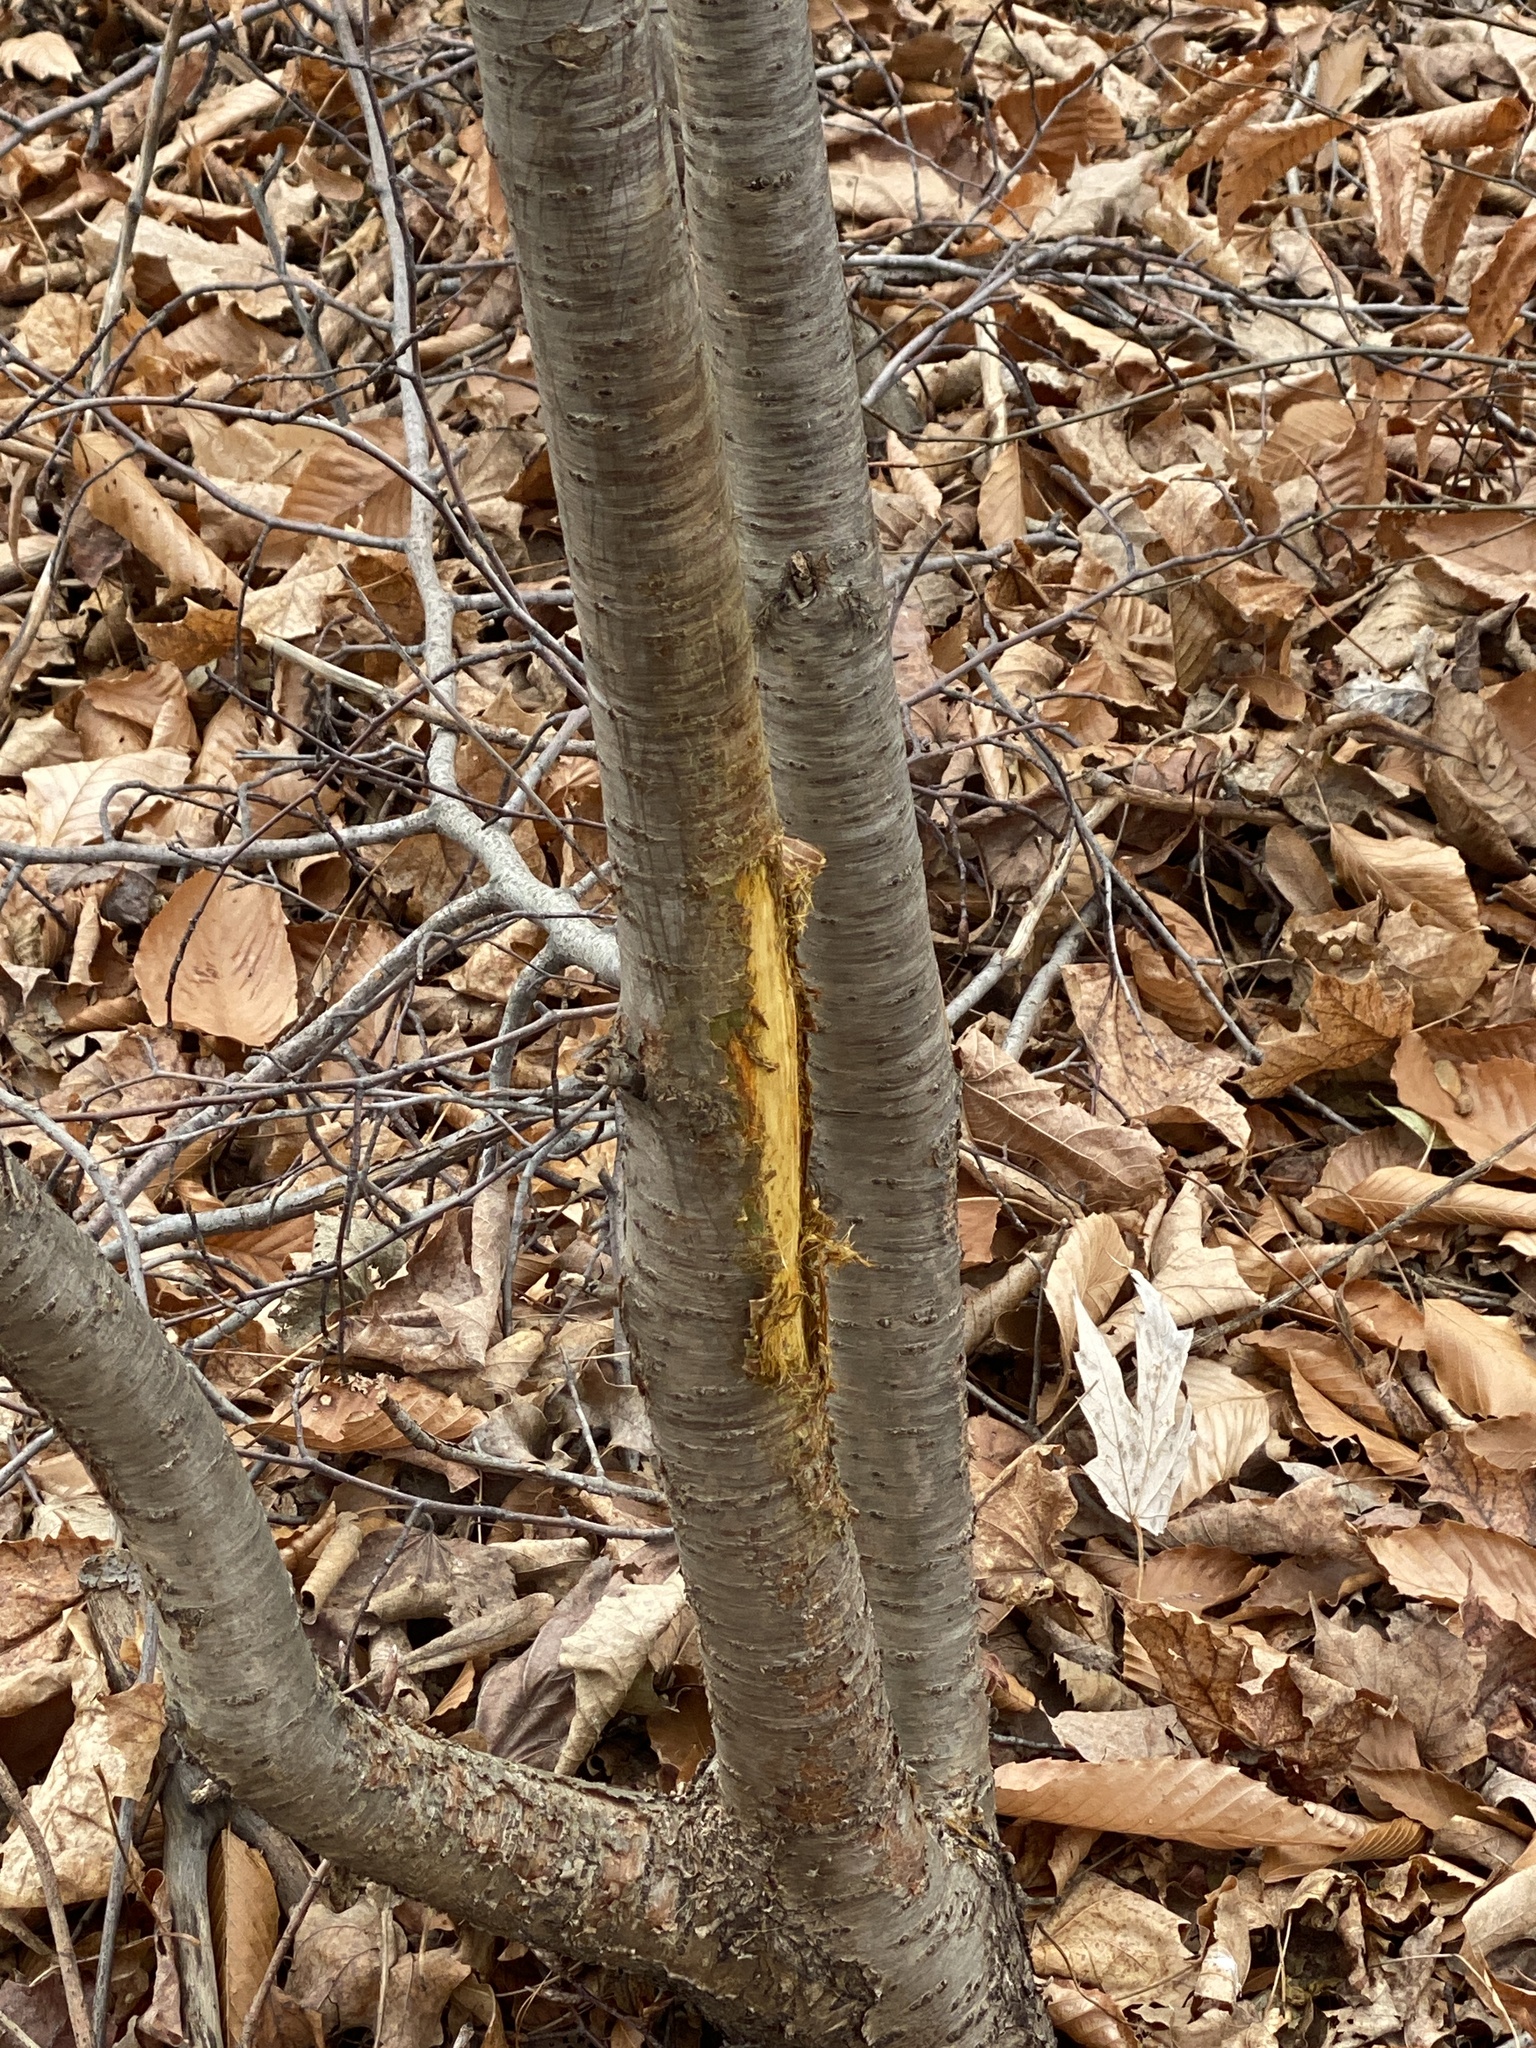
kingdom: Animalia
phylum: Chordata
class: Mammalia
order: Artiodactyla
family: Cervidae
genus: Odocoileus
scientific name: Odocoileus virginianus
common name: White-tailed deer
